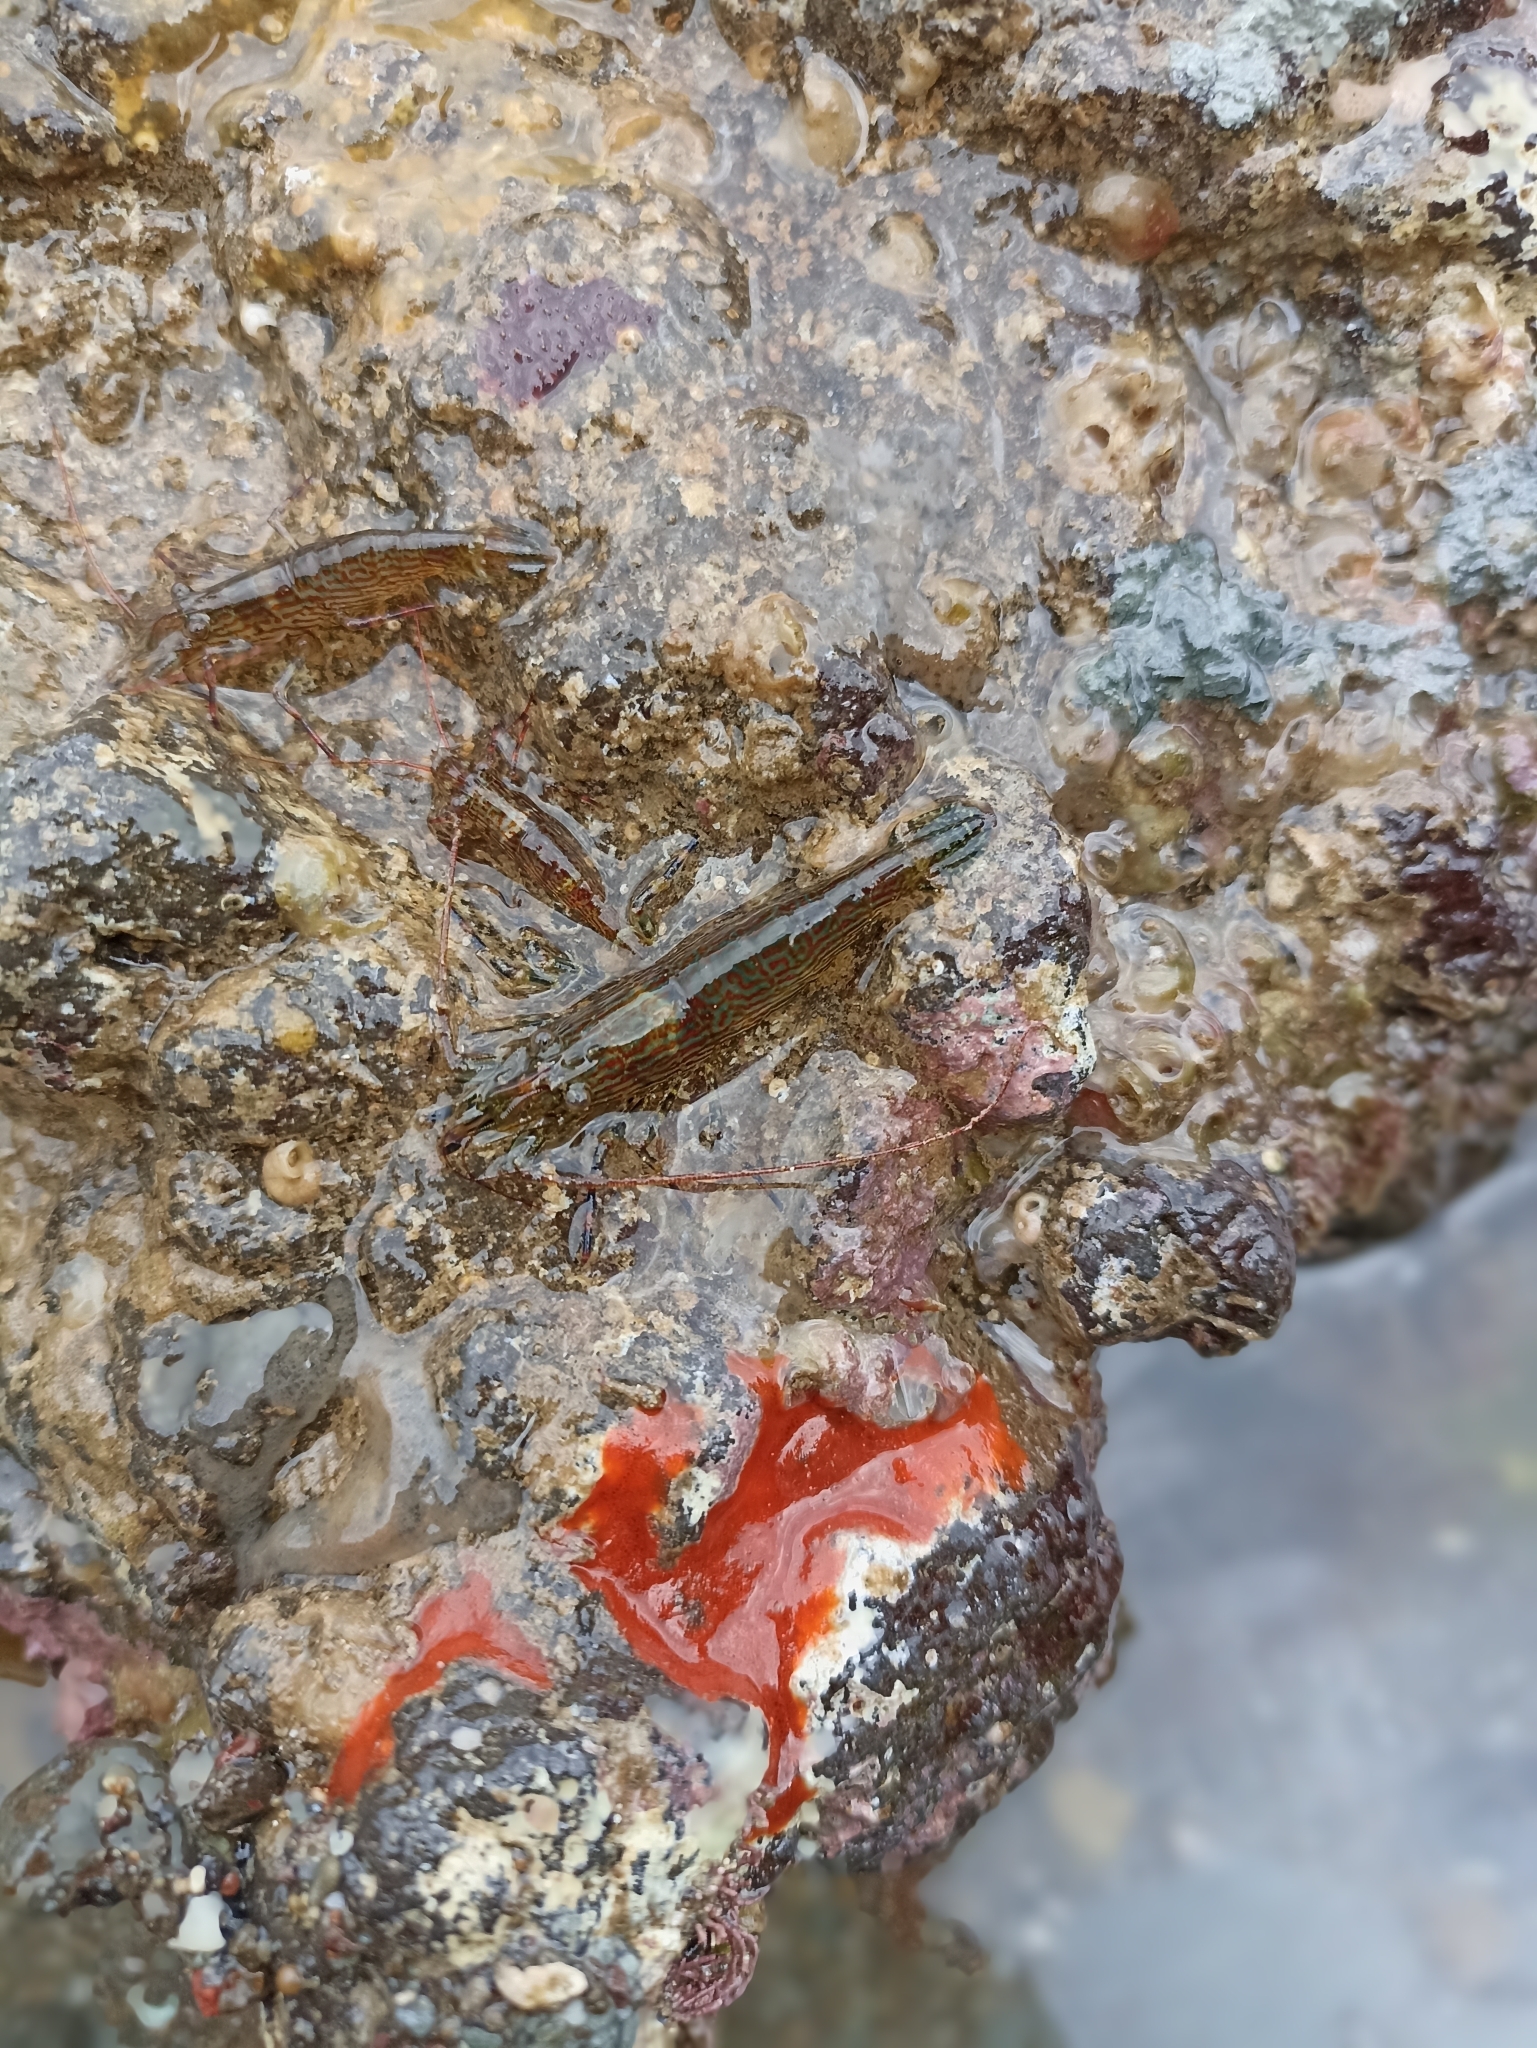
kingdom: Animalia
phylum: Arthropoda
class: Malacostraca
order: Decapoda
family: Hippolytidae
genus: Alope
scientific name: Alope spinifrons
